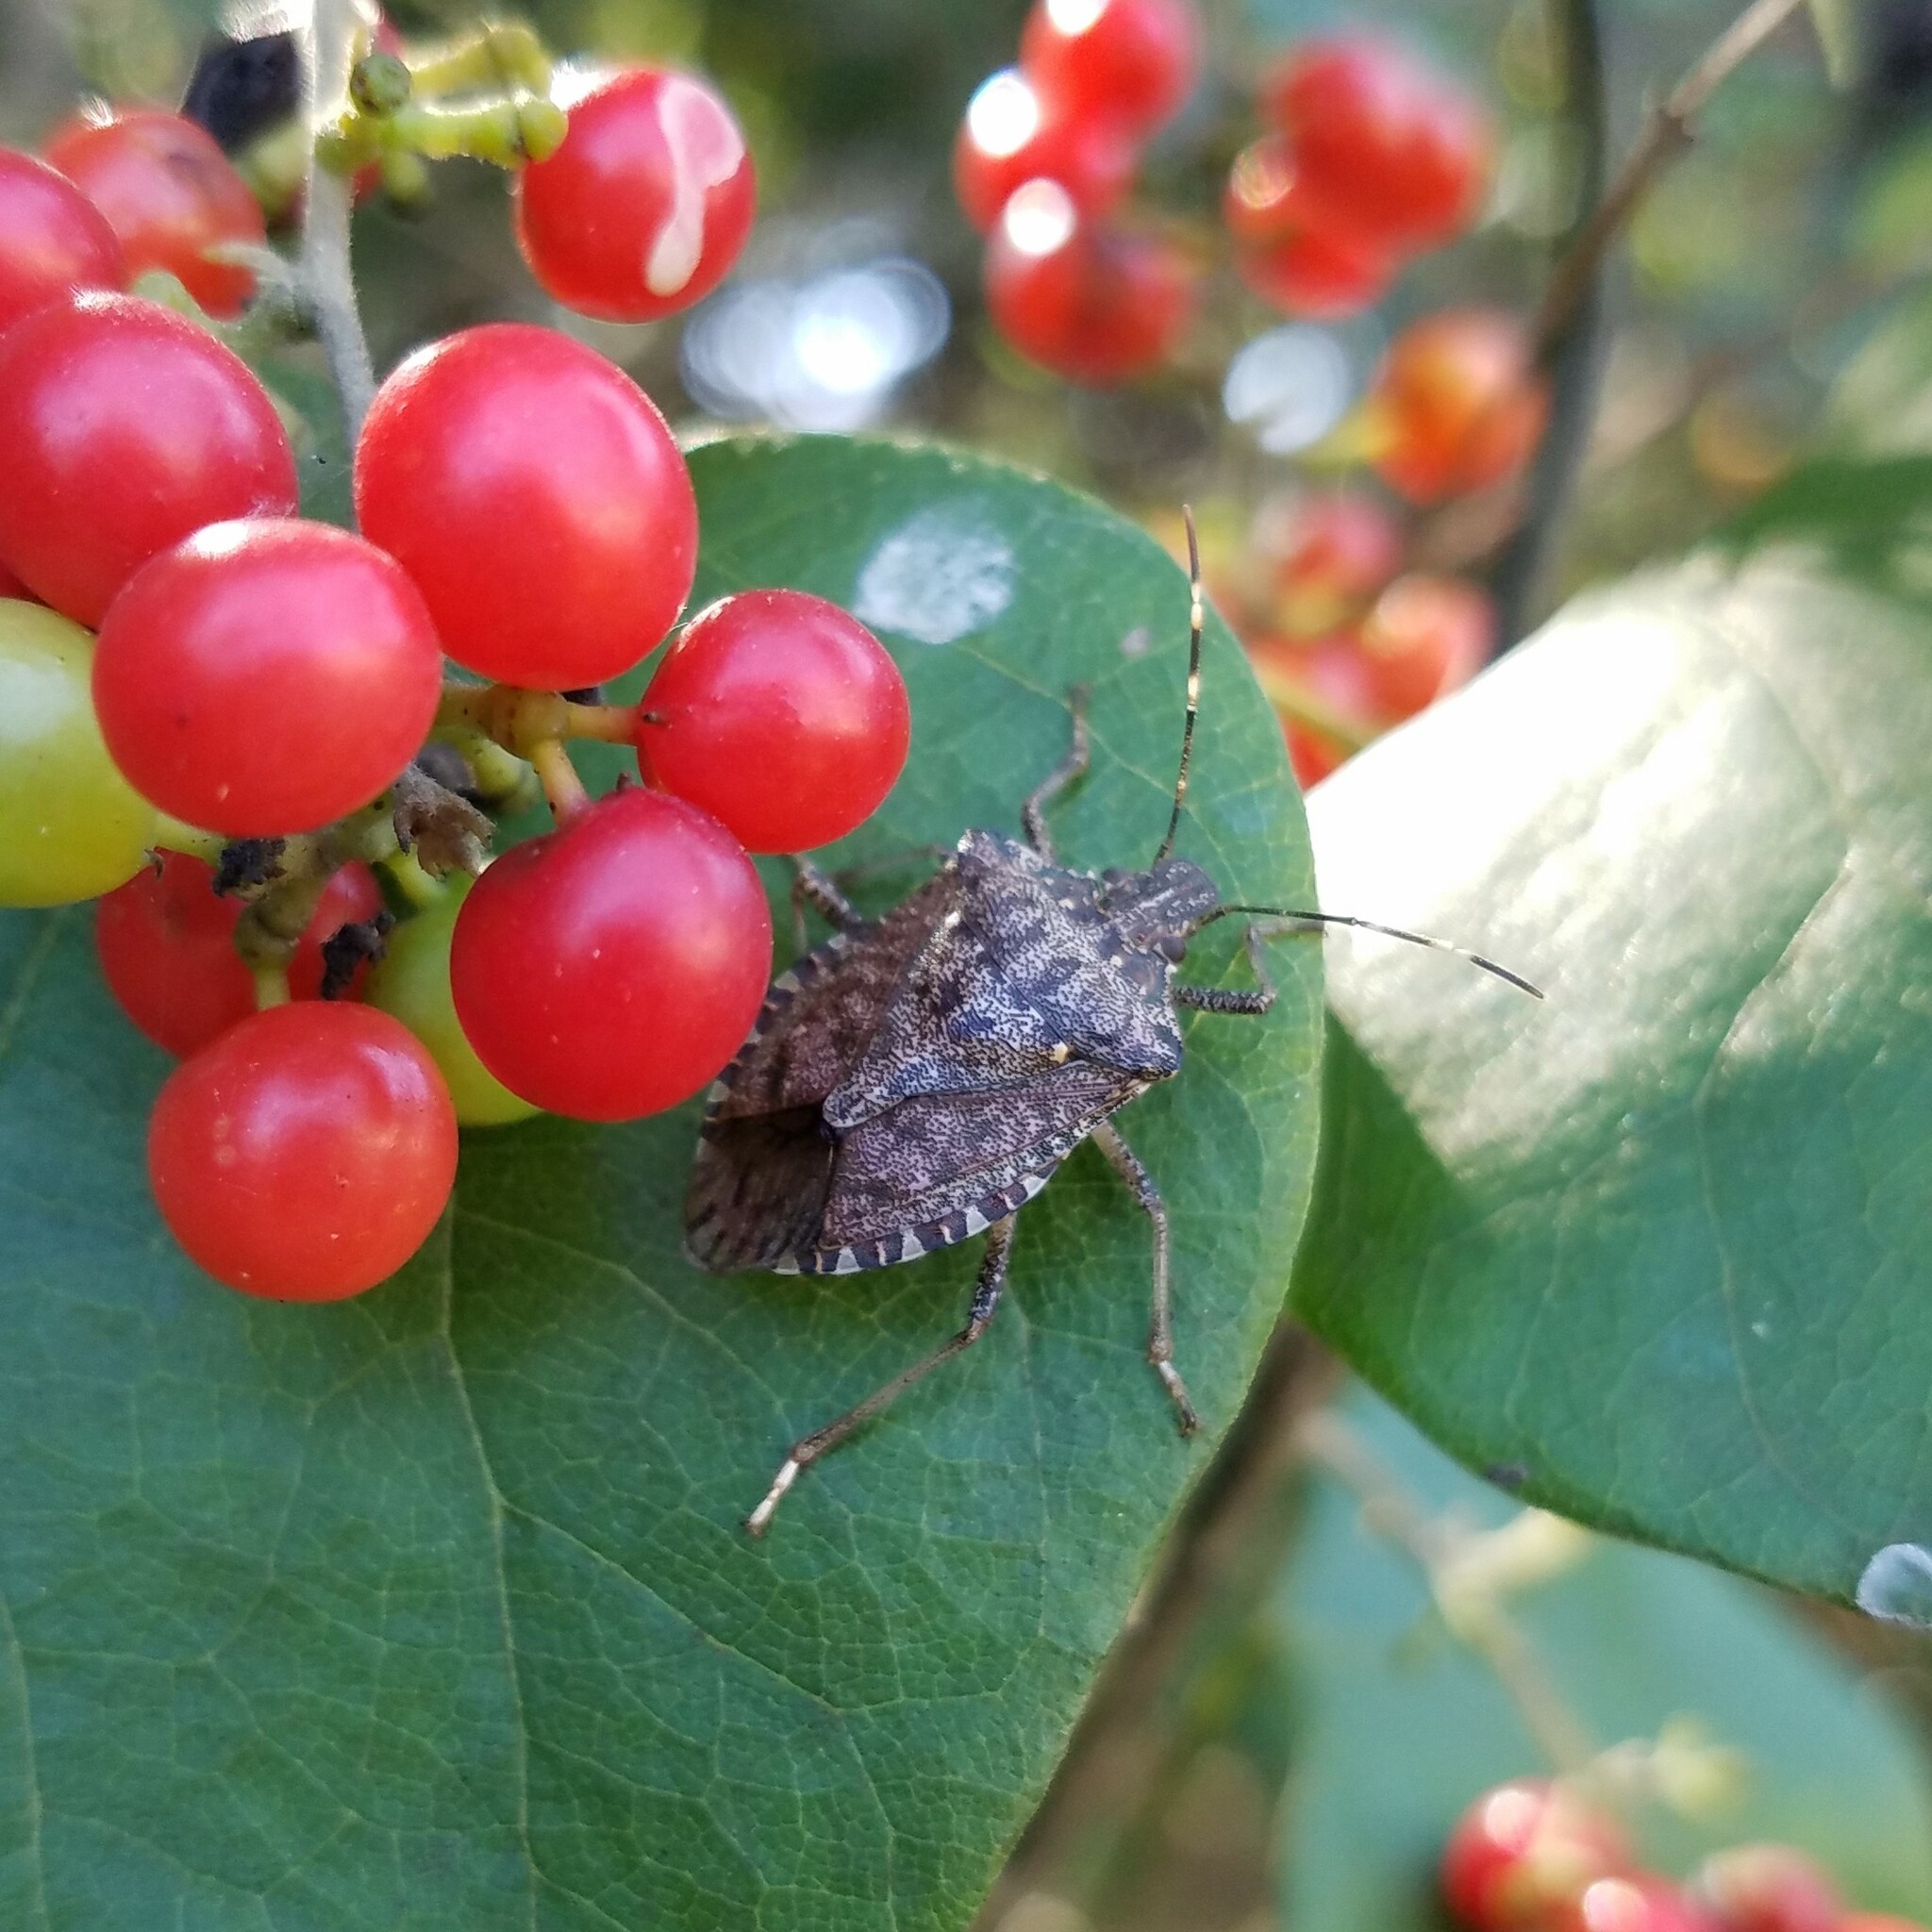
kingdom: Animalia
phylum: Arthropoda
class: Insecta
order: Hemiptera
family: Pentatomidae
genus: Halyomorpha
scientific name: Halyomorpha halys
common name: Brown marmorated stink bug
